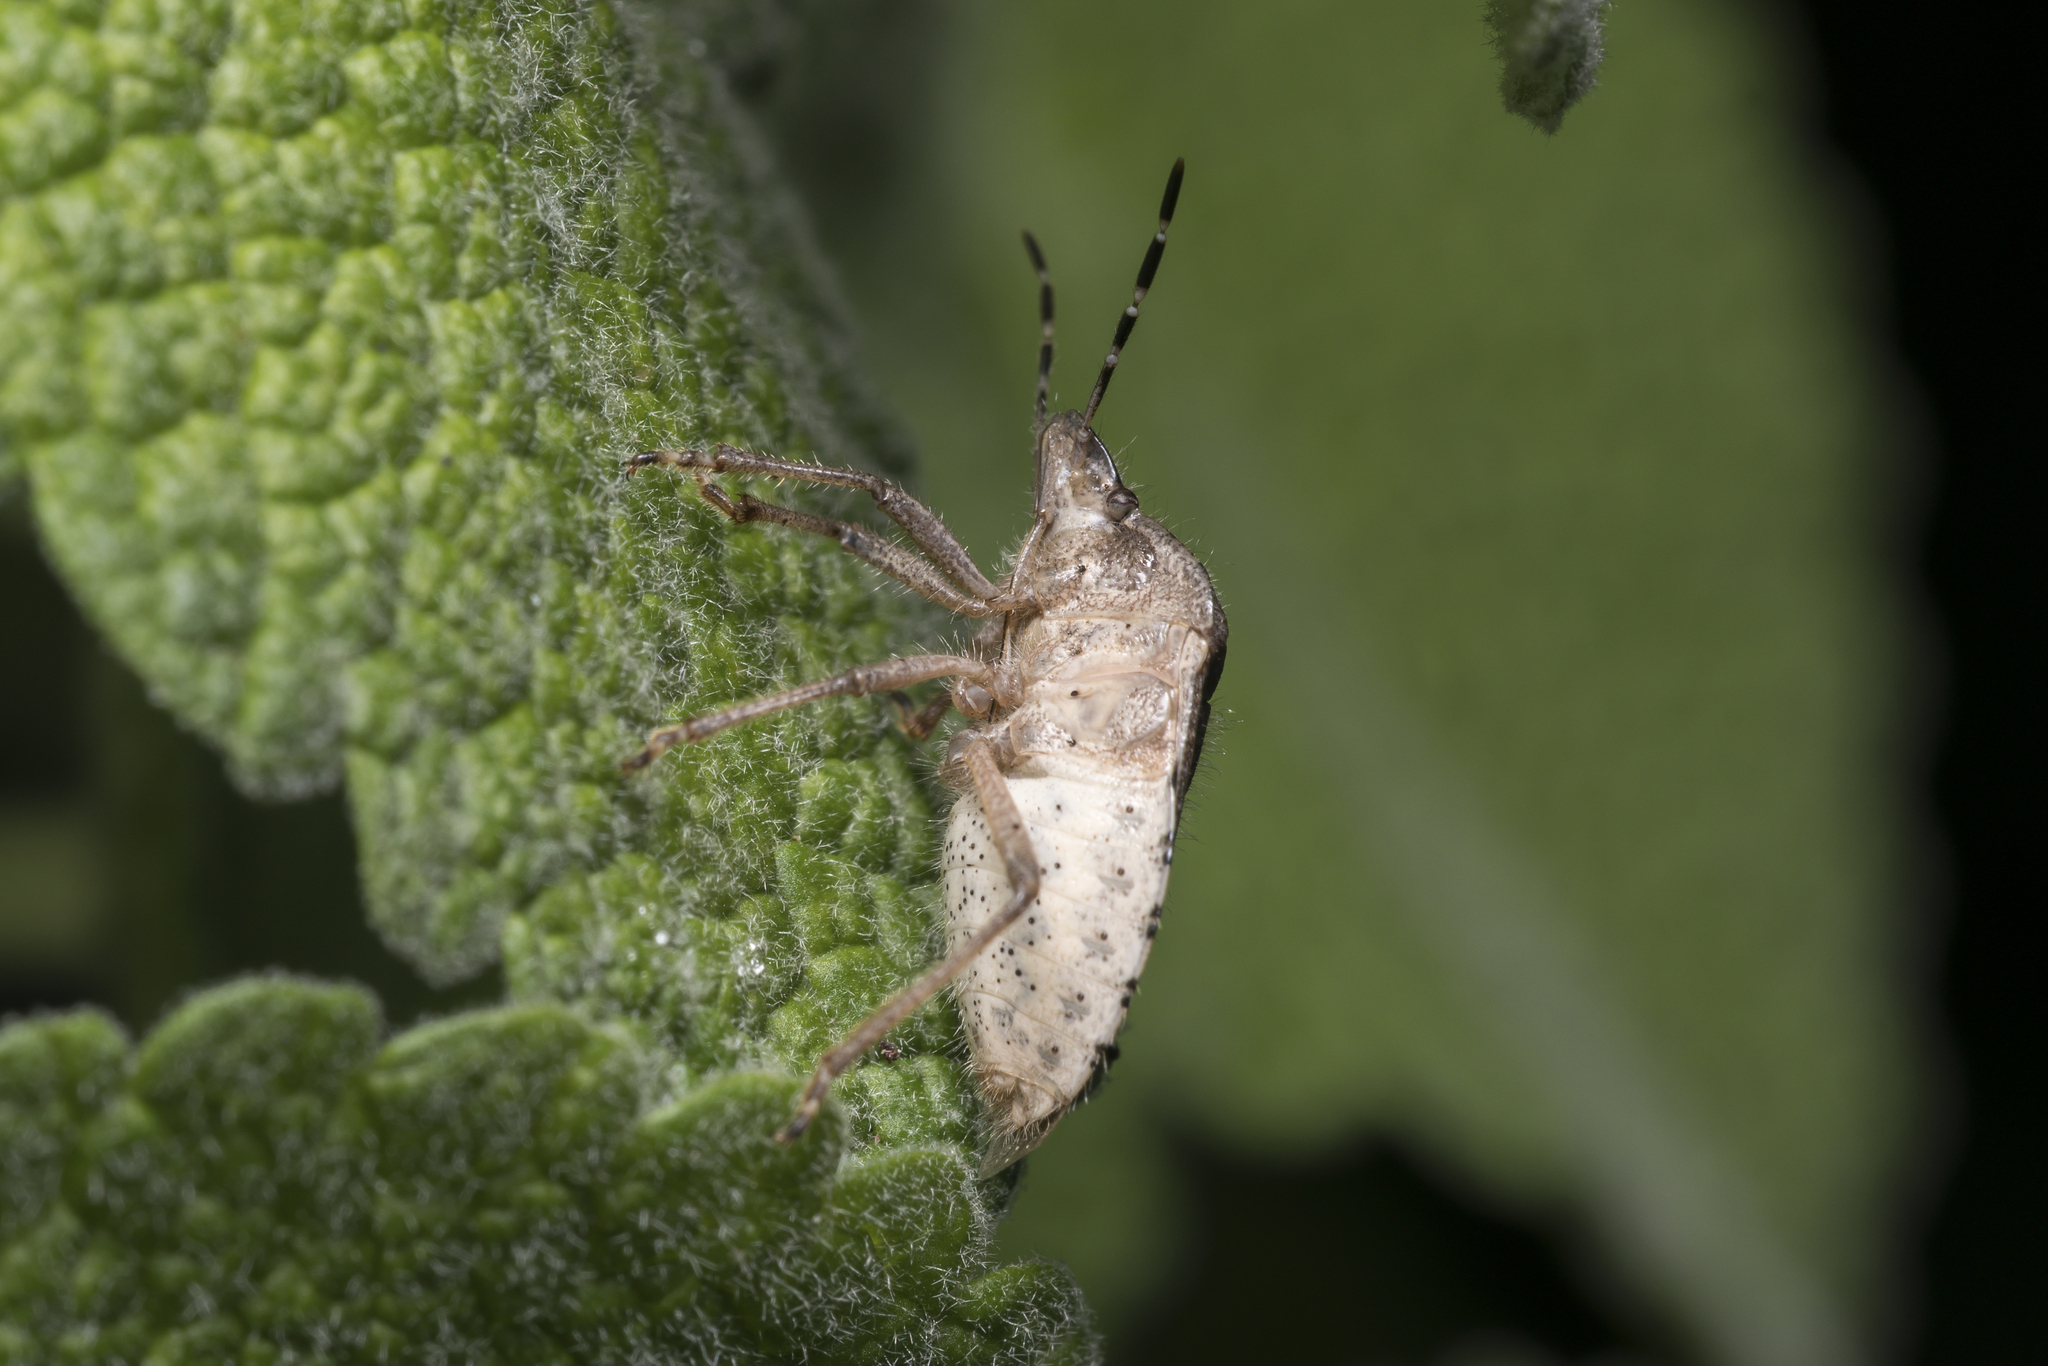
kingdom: Animalia
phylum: Arthropoda
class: Insecta
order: Hemiptera
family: Pentatomidae
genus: Dolycoris
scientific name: Dolycoris baccarum
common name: Sloe bug
